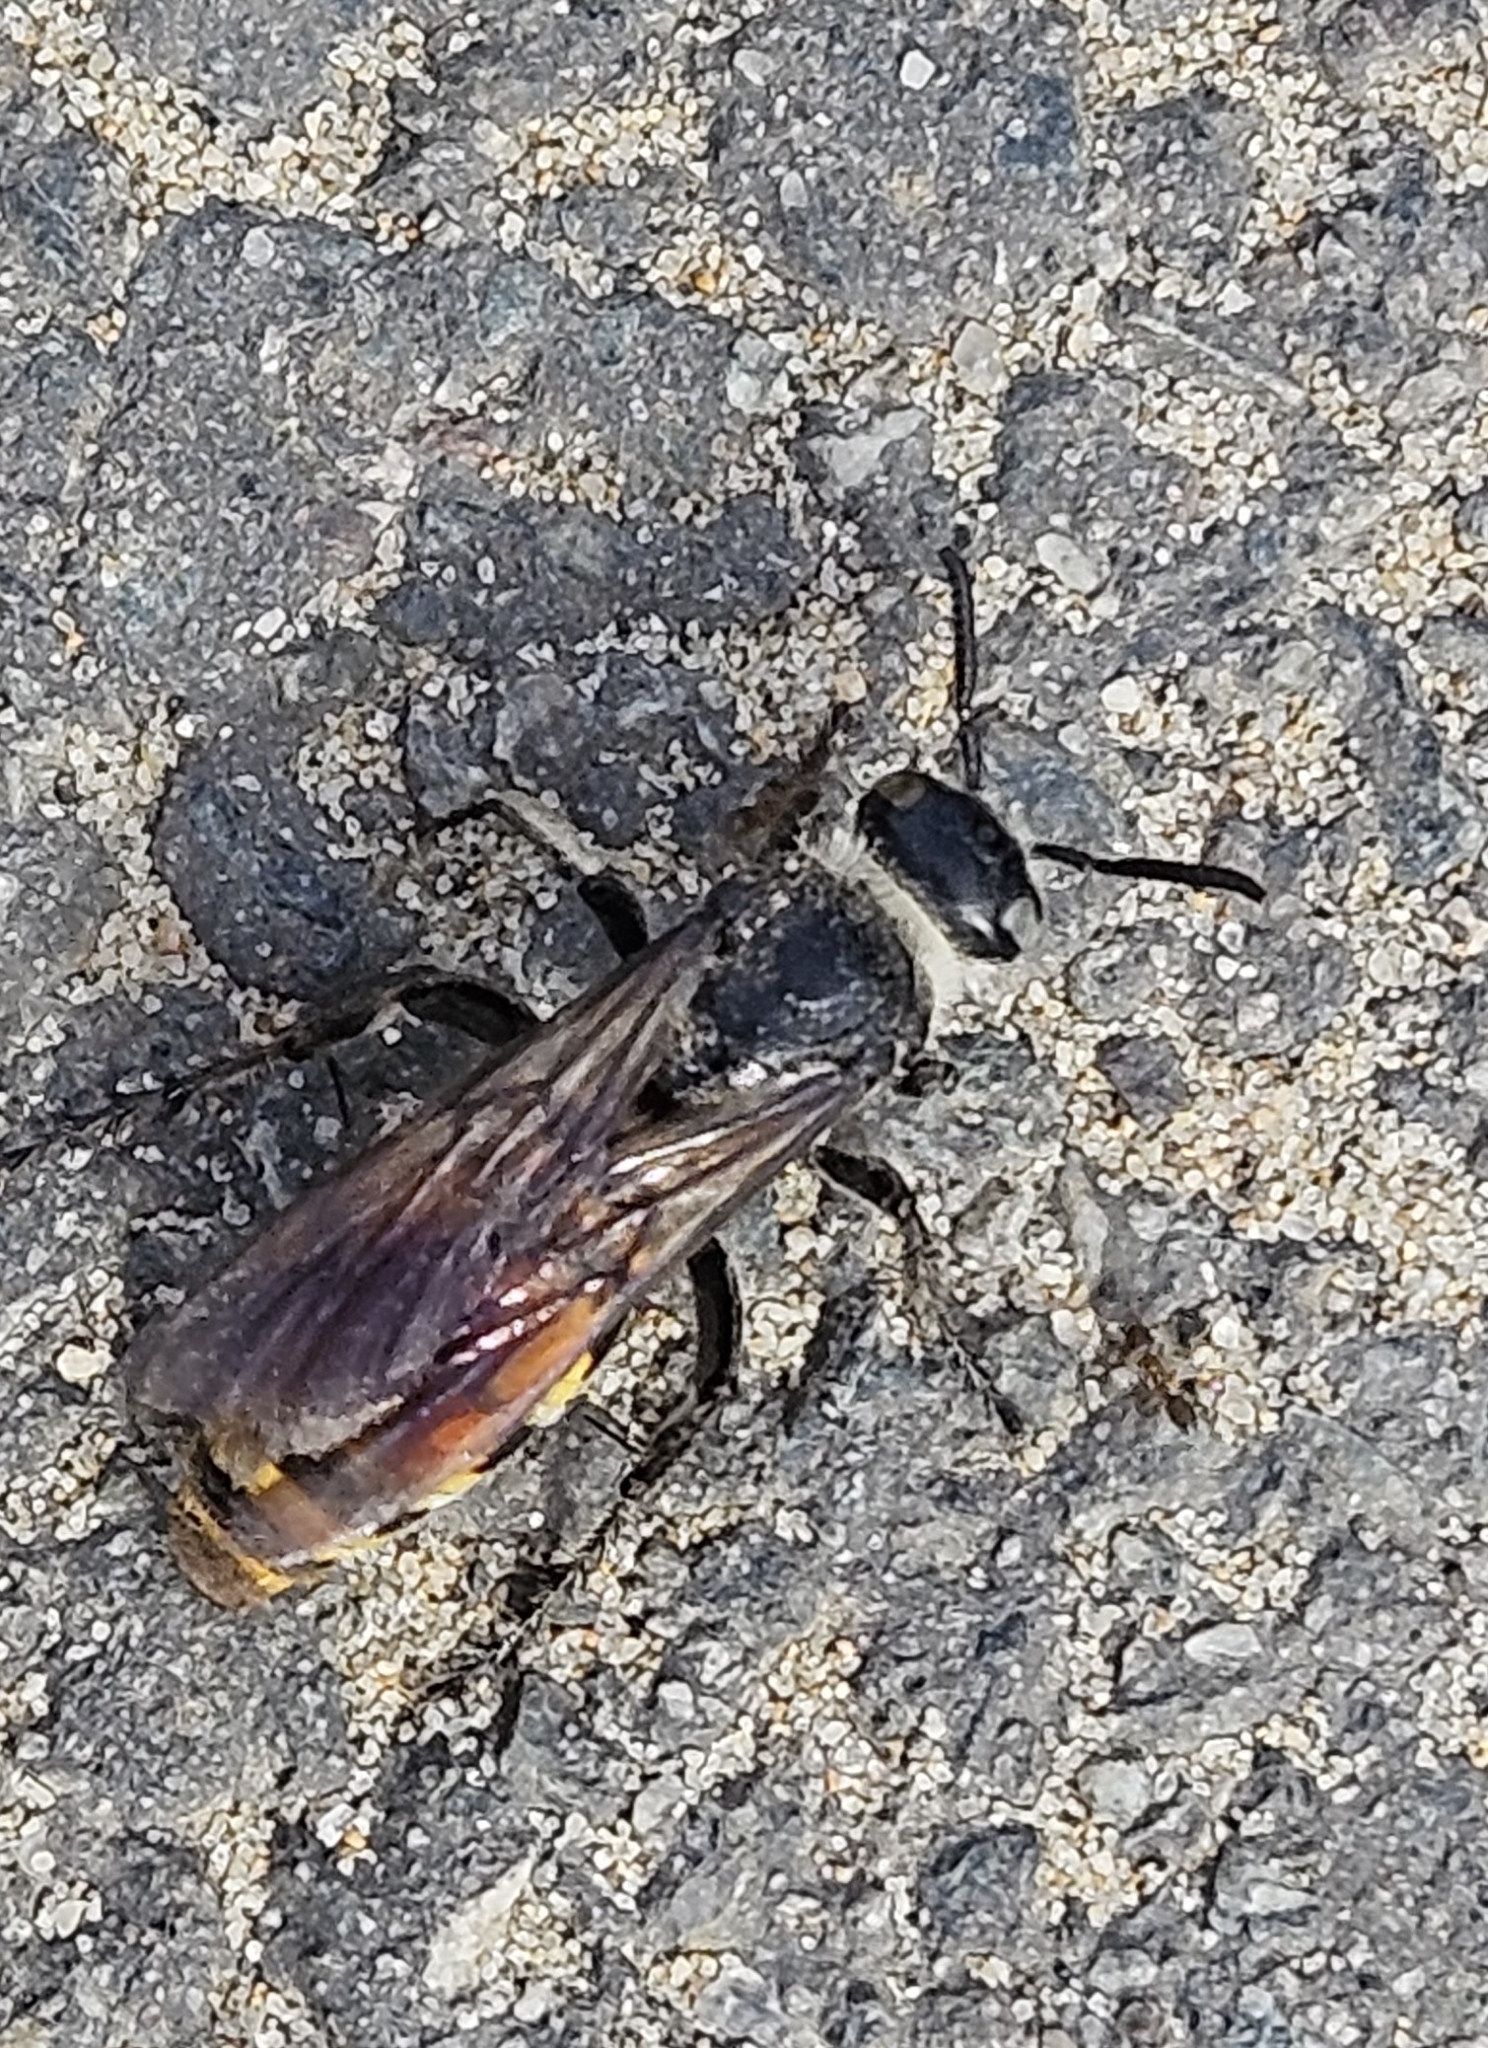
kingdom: Animalia
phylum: Arthropoda
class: Insecta
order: Hymenoptera
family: Scoliidae
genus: Dielis
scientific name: Dielis tolteca
